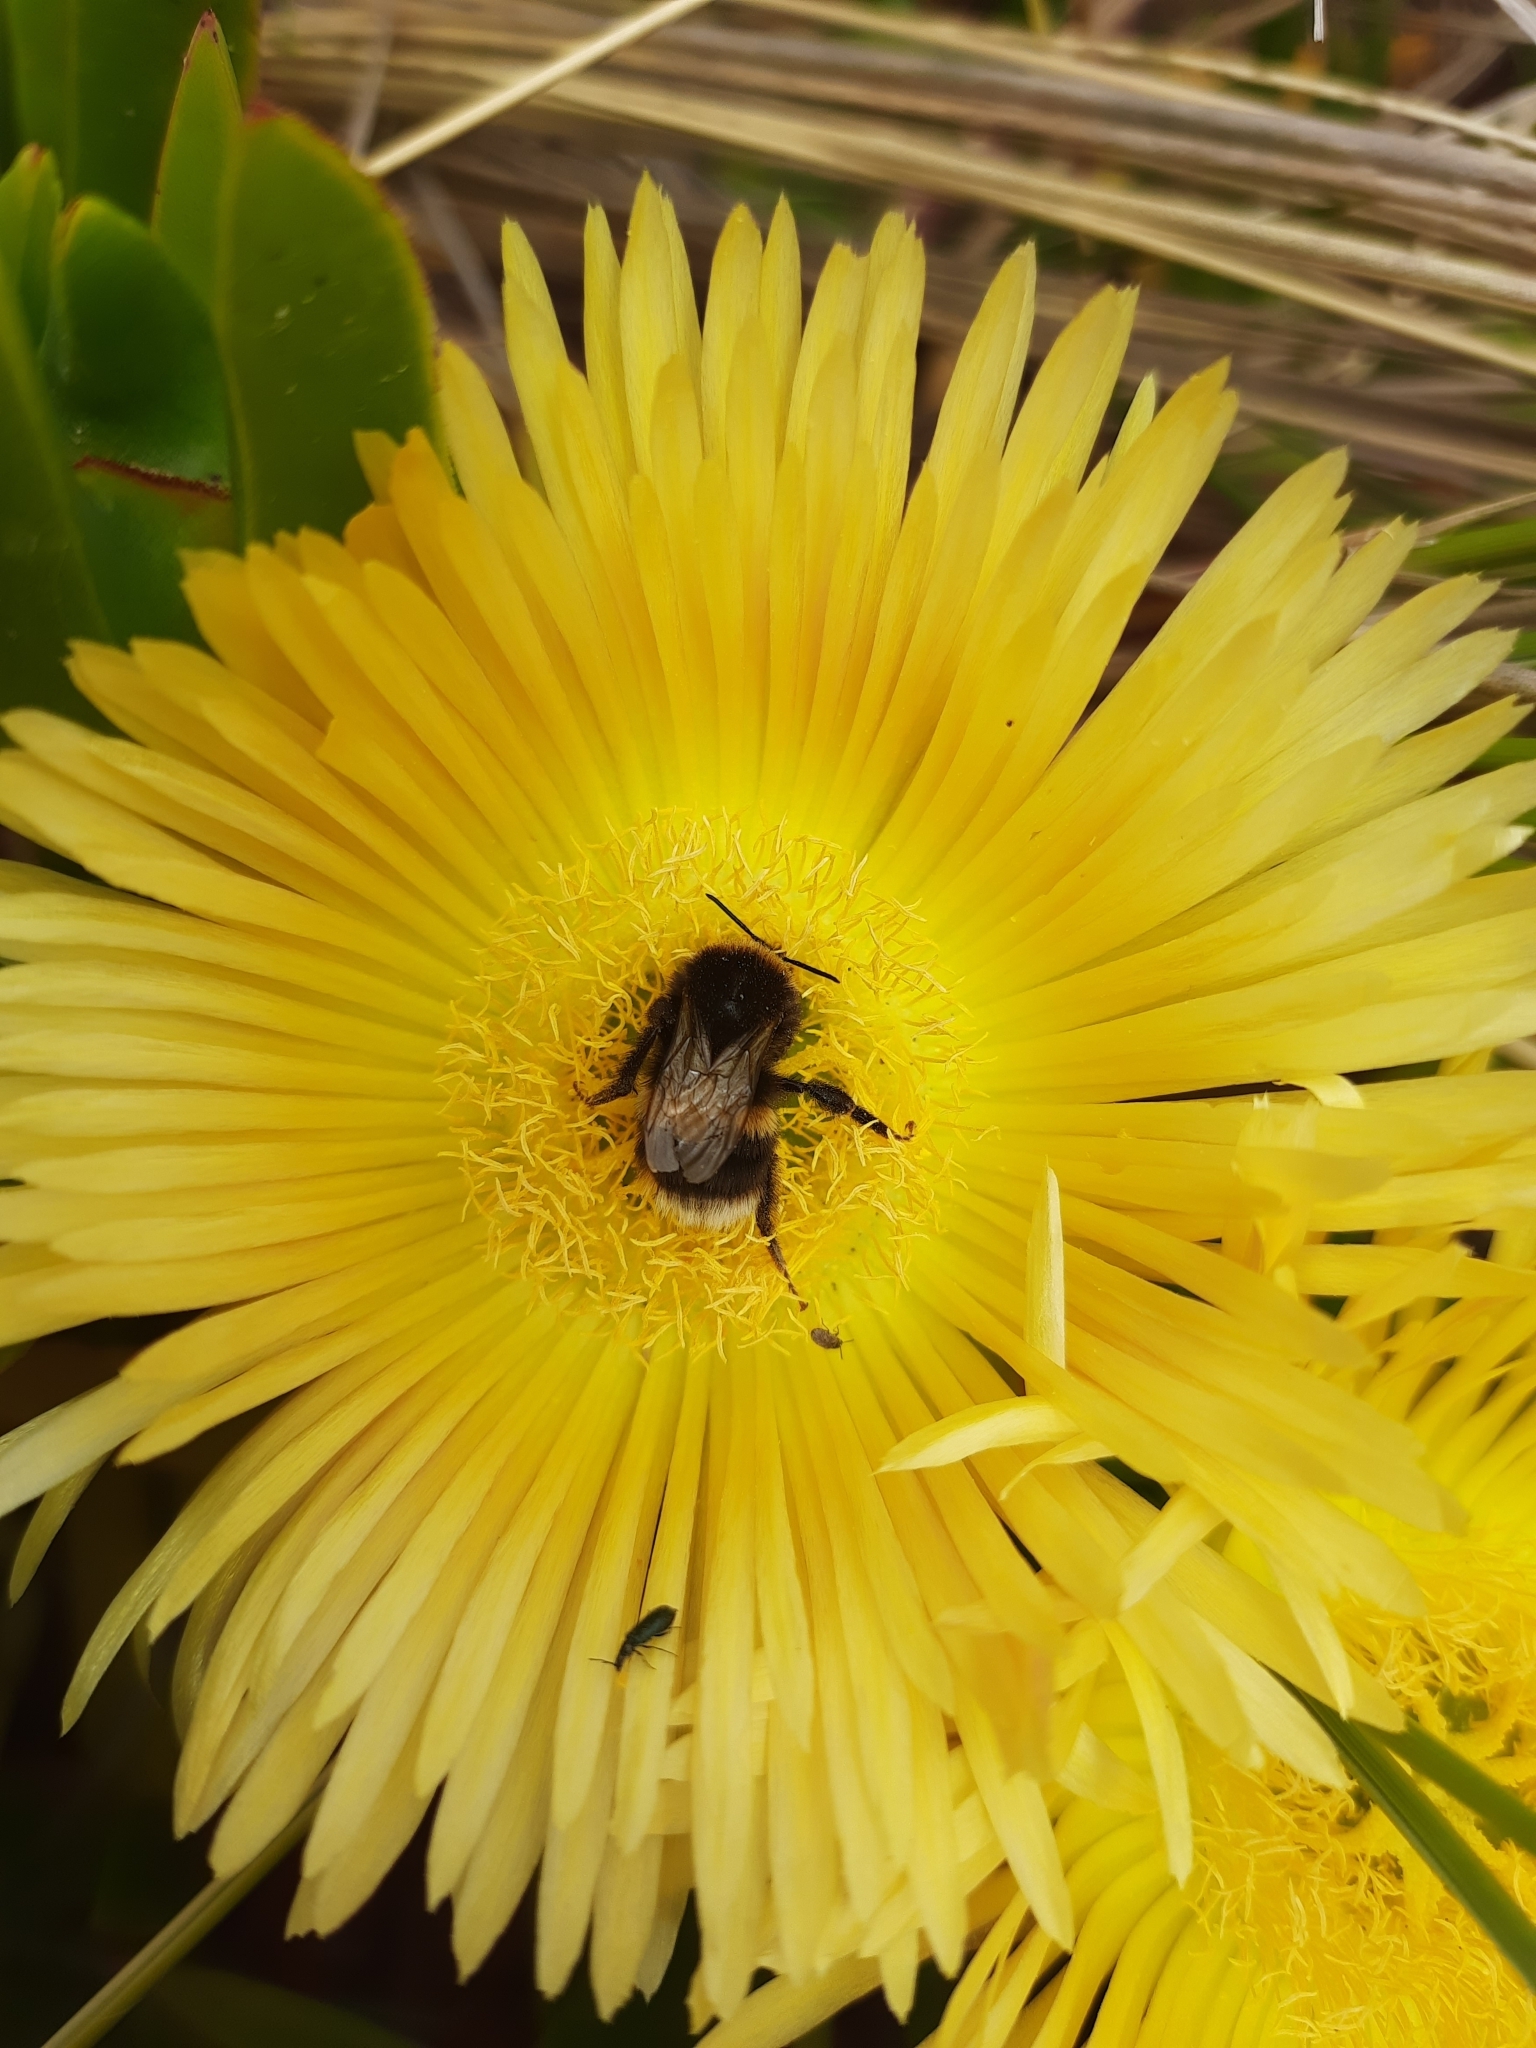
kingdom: Animalia
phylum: Arthropoda
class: Insecta
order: Hymenoptera
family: Apidae
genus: Bombus
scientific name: Bombus terrestris
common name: Buff-tailed bumblebee
